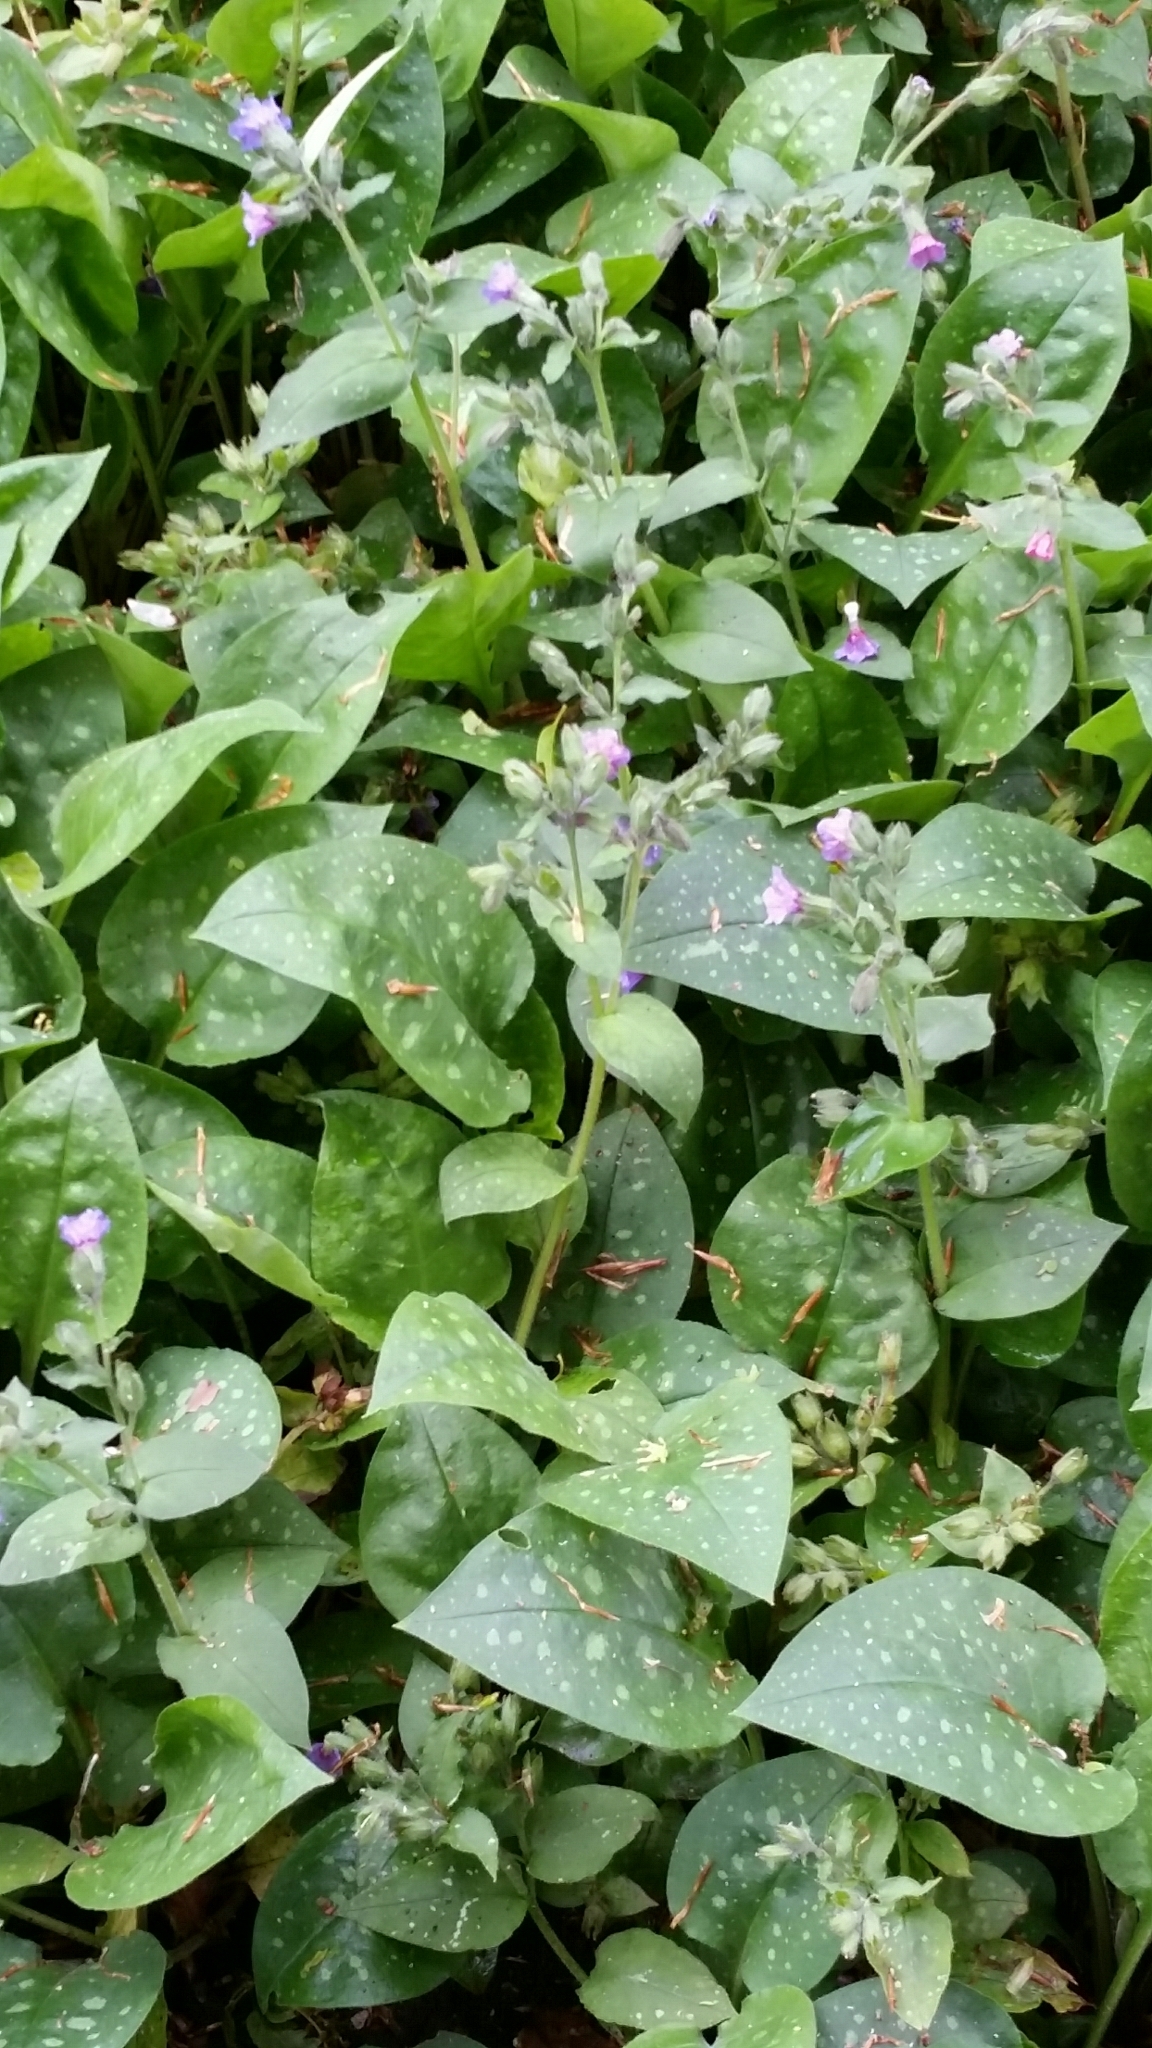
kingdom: Plantae
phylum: Tracheophyta
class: Magnoliopsida
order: Boraginales
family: Boraginaceae
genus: Pulmonaria
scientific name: Pulmonaria officinalis
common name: Lungwort
